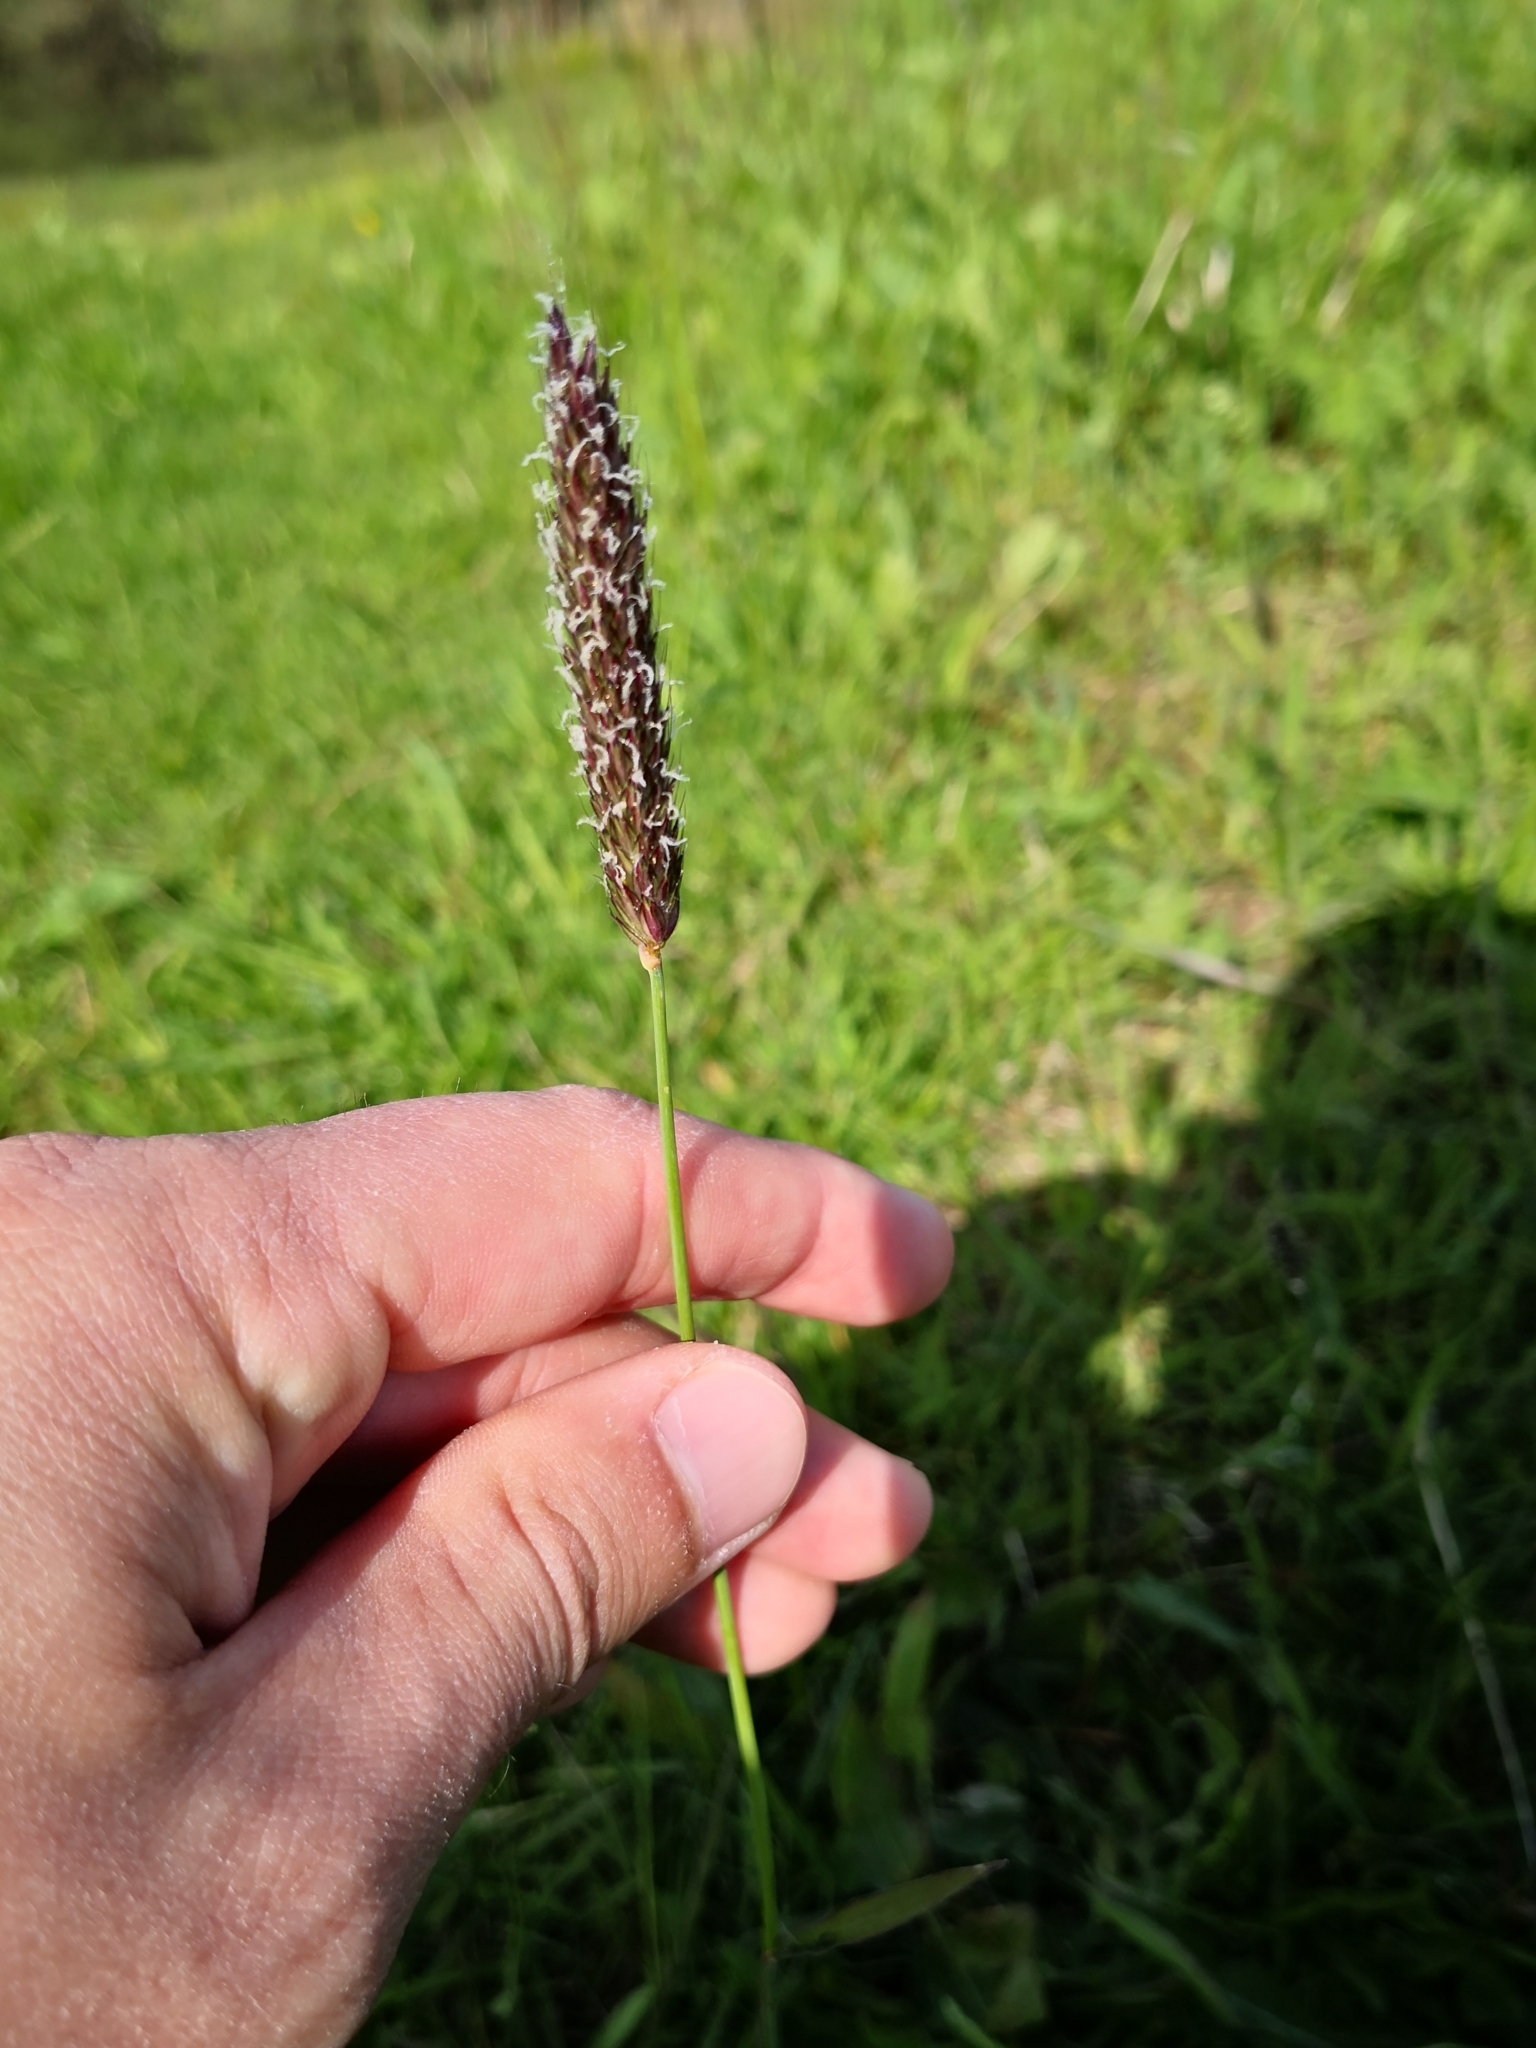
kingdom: Plantae
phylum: Tracheophyta
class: Liliopsida
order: Poales
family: Poaceae
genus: Alopecurus
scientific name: Alopecurus pratensis
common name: Meadow foxtail
